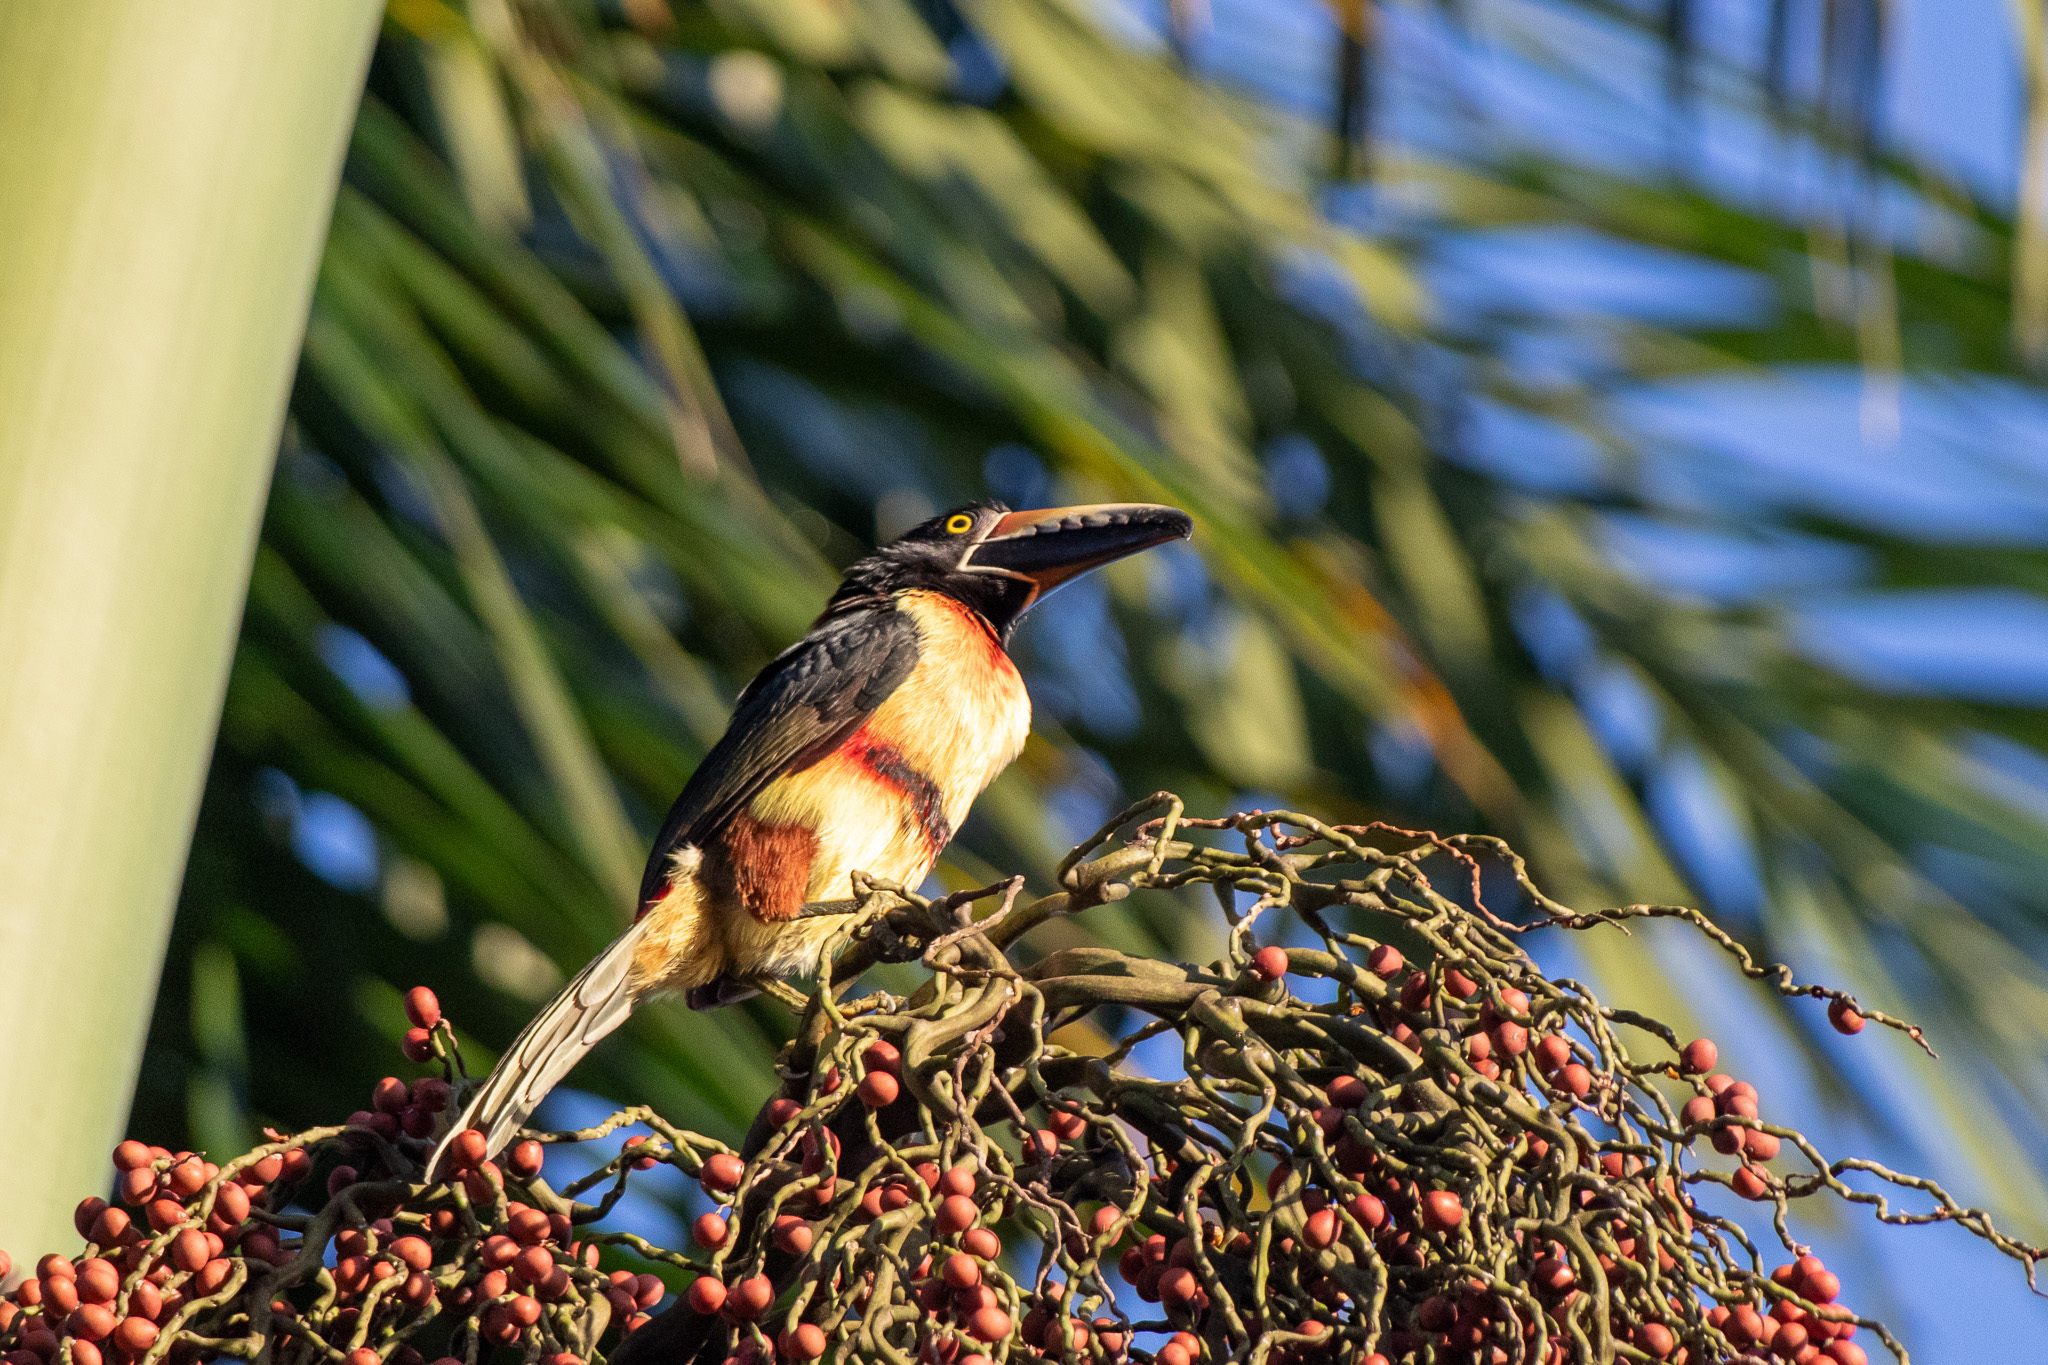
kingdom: Animalia
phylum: Chordata
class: Aves
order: Piciformes
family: Ramphastidae
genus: Pteroglossus
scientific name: Pteroglossus torquatus
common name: Collared aracari
